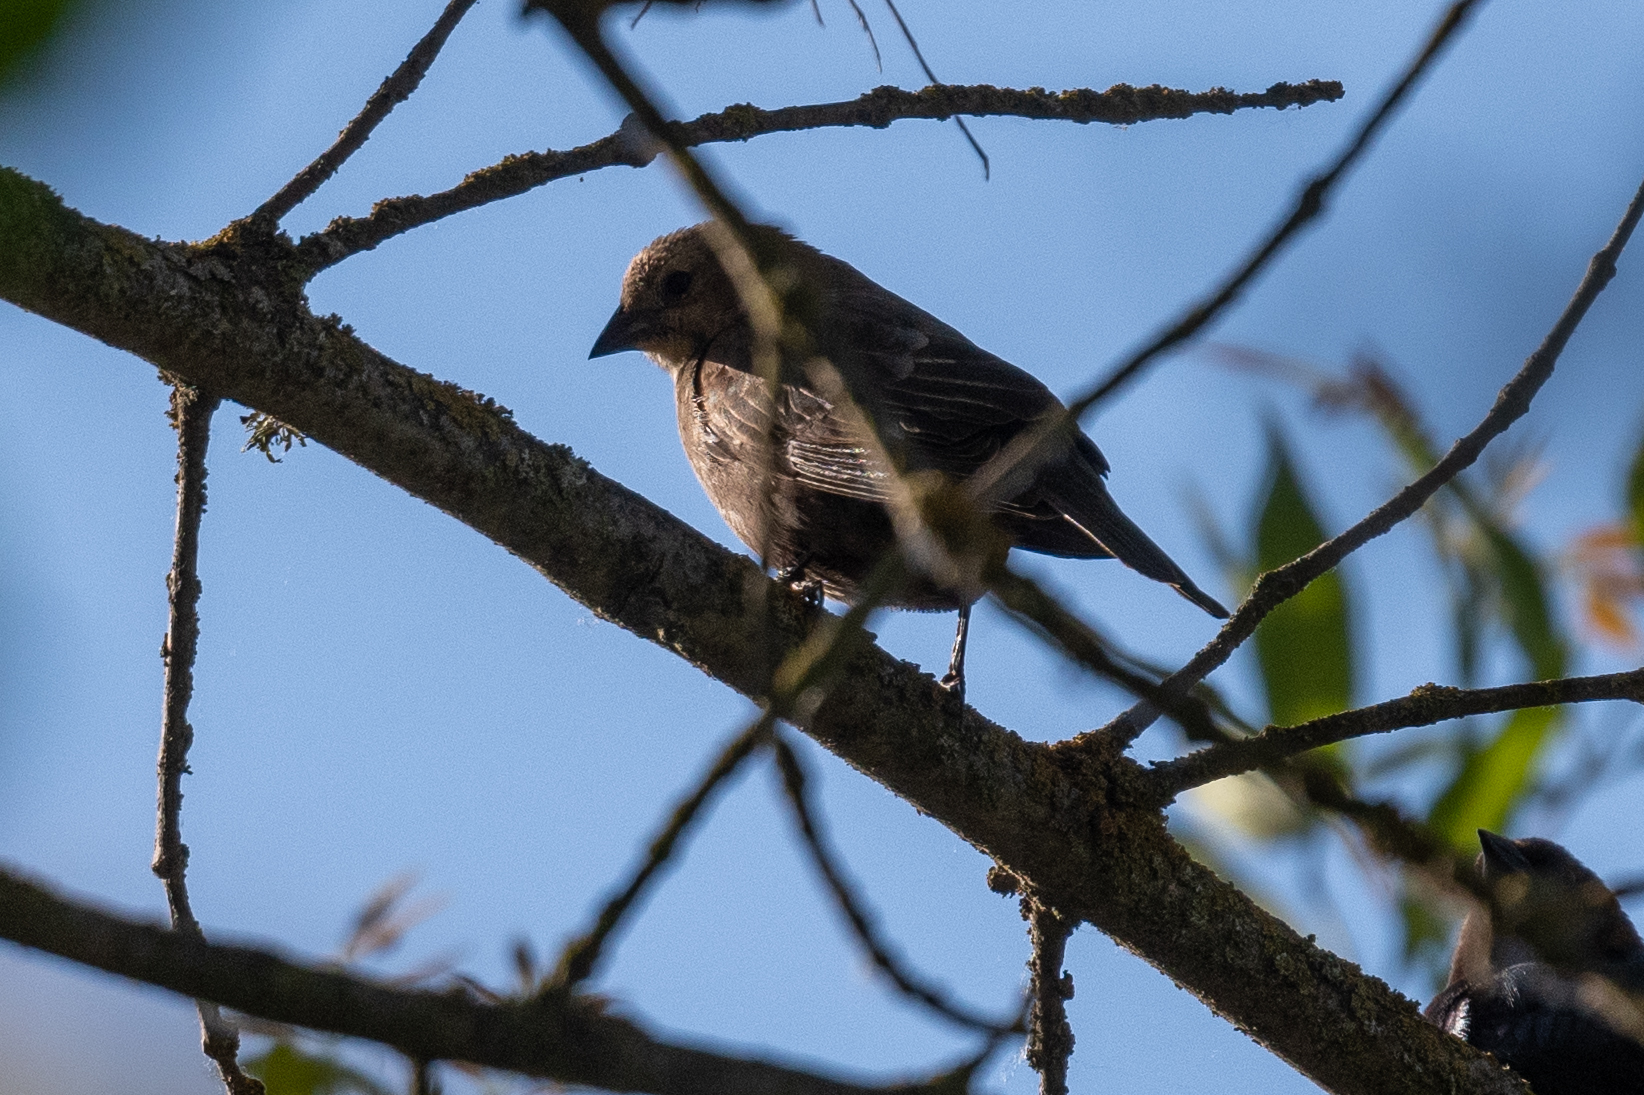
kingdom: Animalia
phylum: Chordata
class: Aves
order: Passeriformes
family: Icteridae
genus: Molothrus
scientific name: Molothrus ater
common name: Brown-headed cowbird
